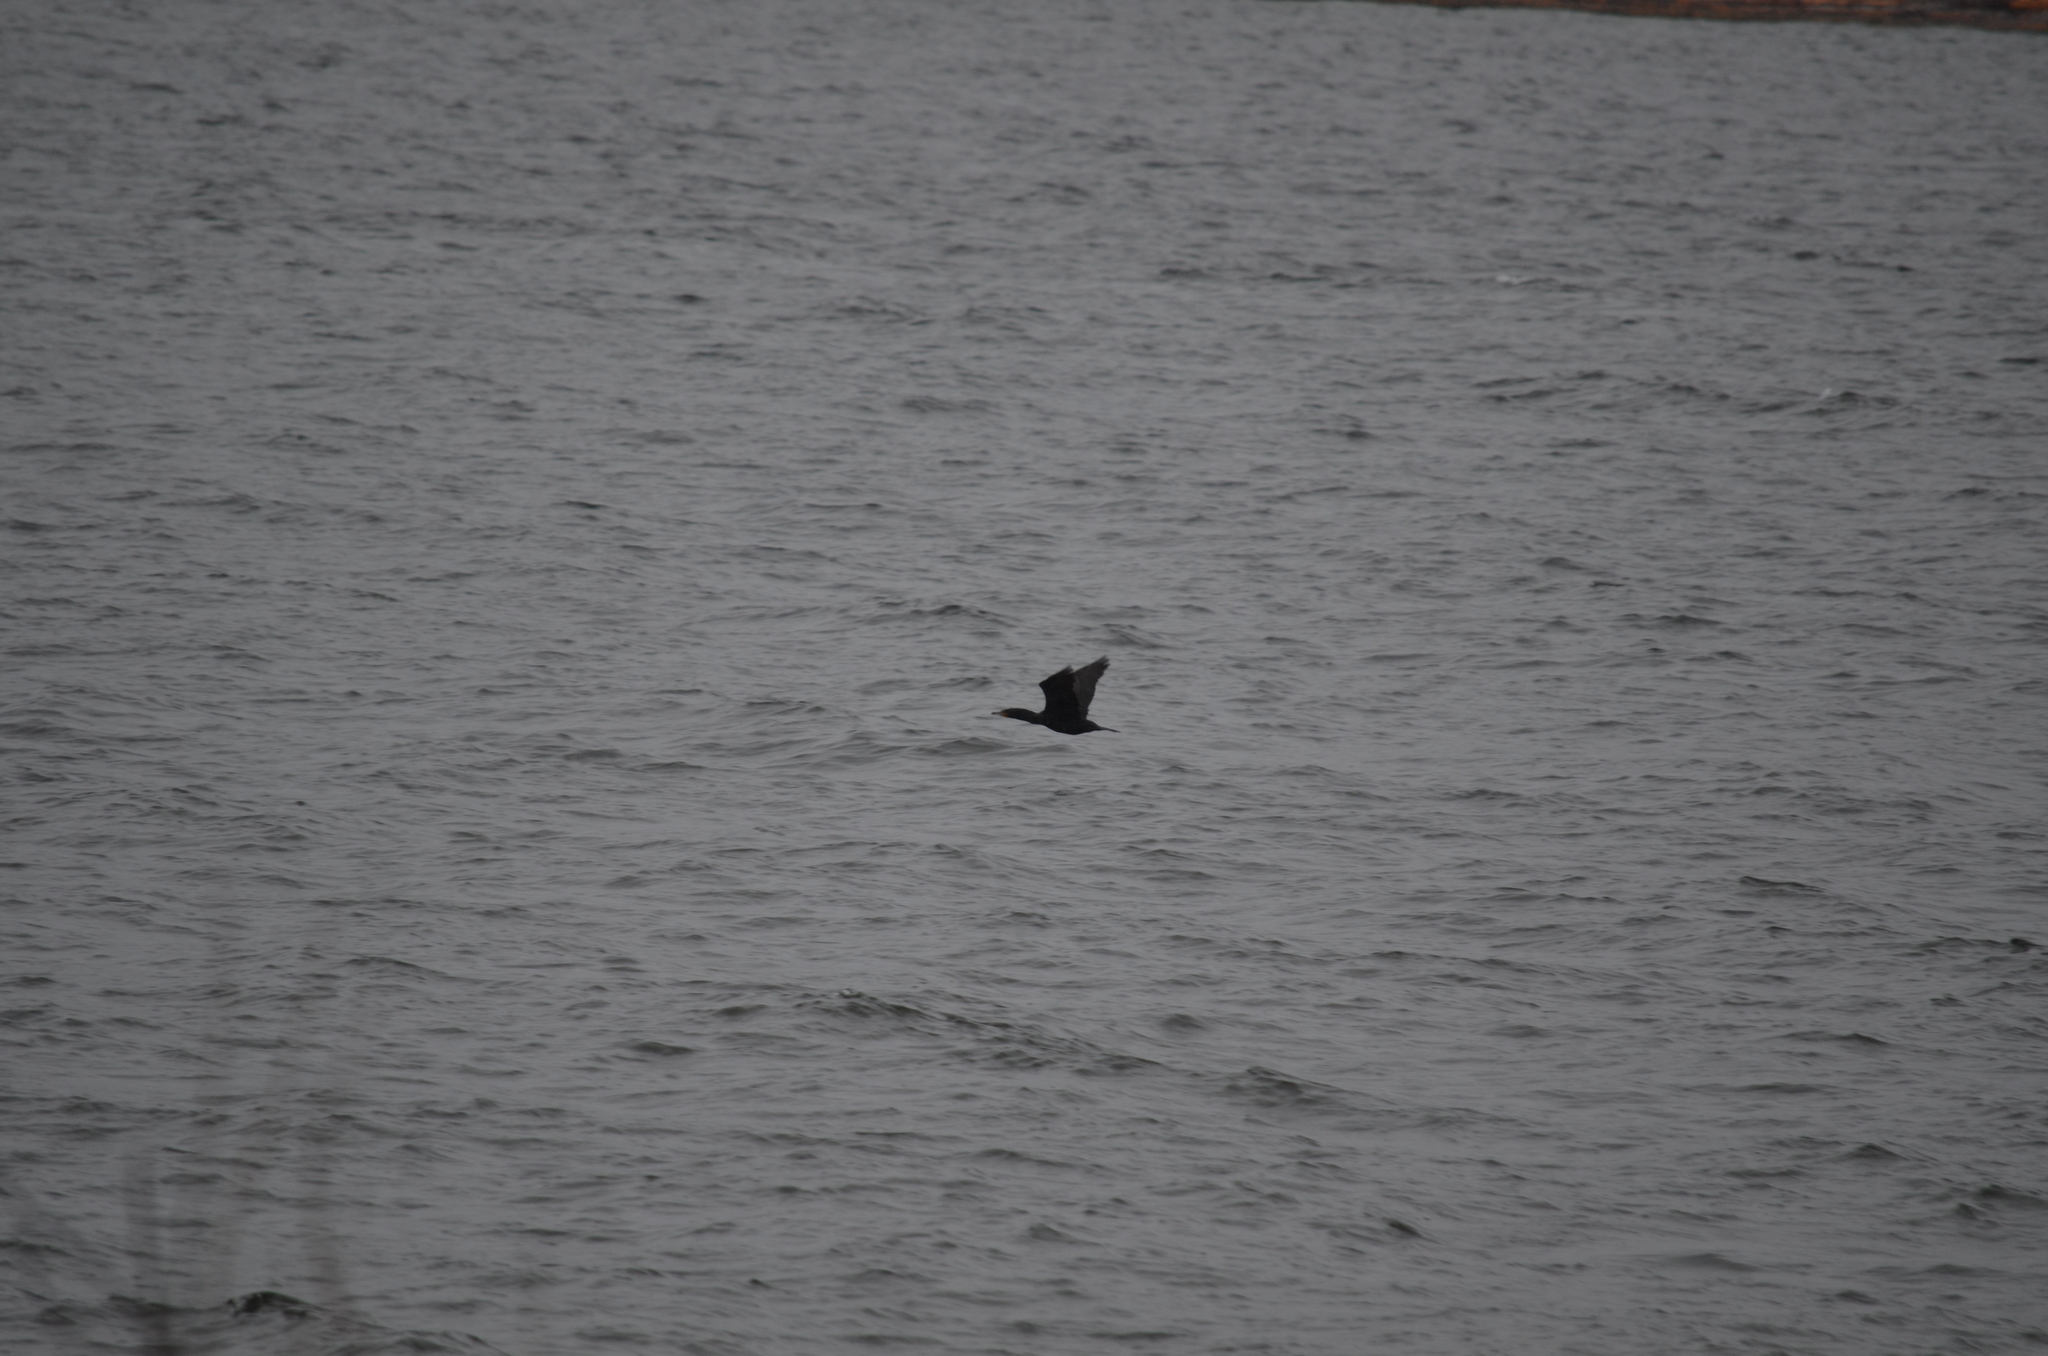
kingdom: Animalia
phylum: Chordata
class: Aves
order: Suliformes
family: Phalacrocoracidae
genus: Phalacrocorax
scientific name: Phalacrocorax auritus
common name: Double-crested cormorant
